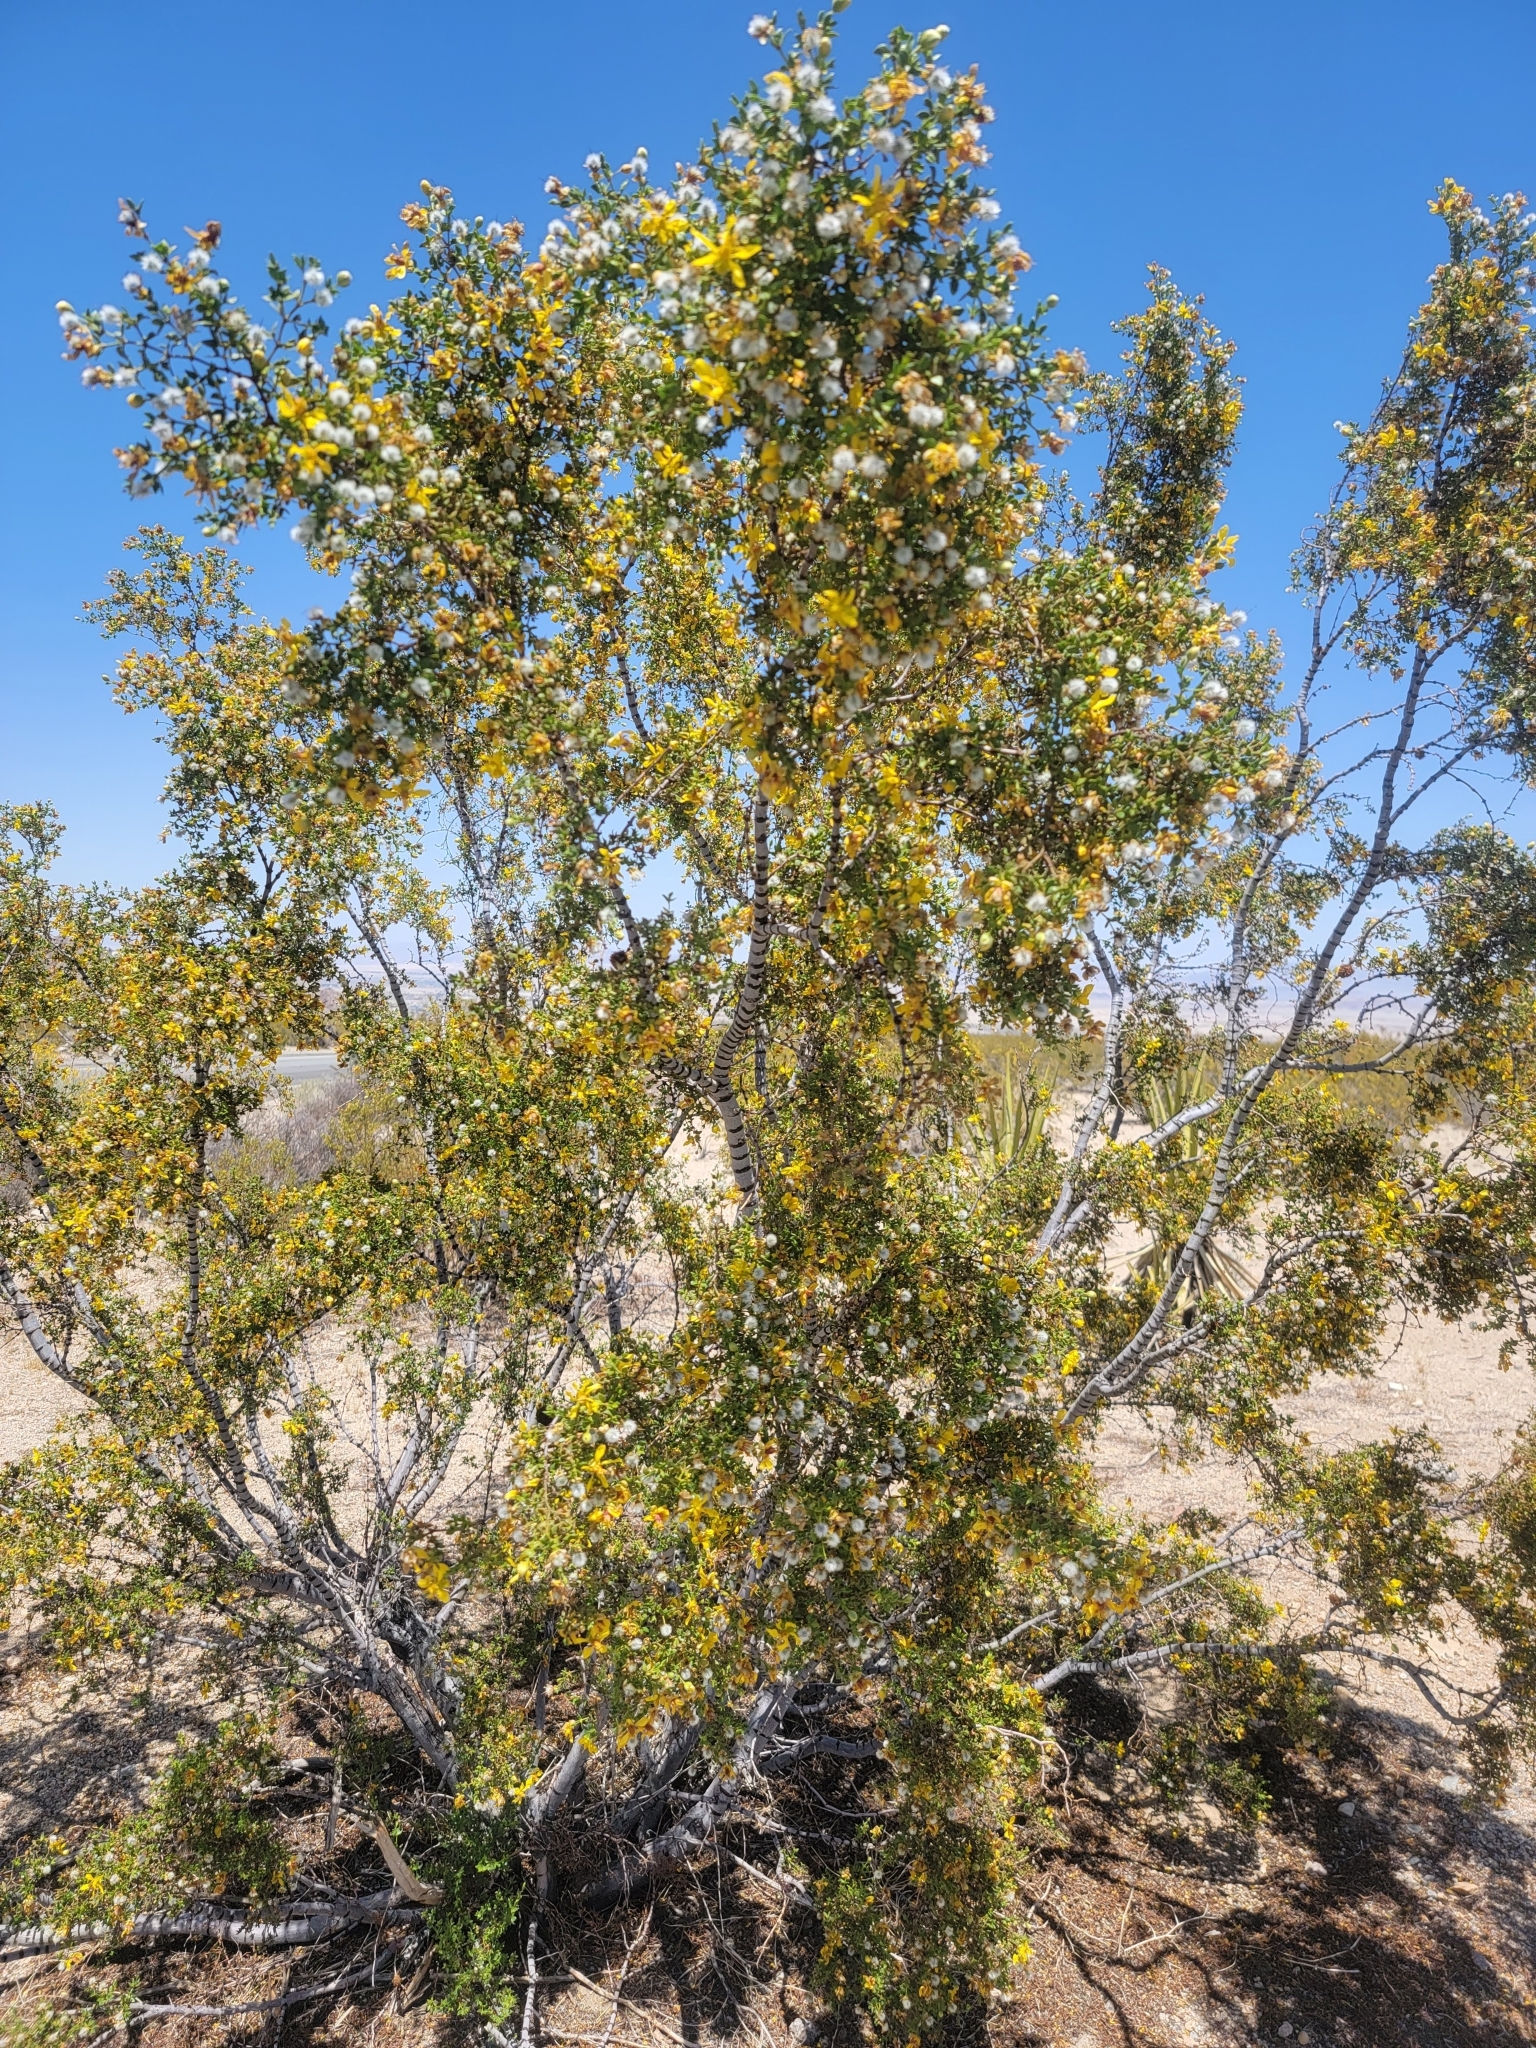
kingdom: Plantae
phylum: Tracheophyta
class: Magnoliopsida
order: Zygophyllales
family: Zygophyllaceae
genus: Larrea
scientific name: Larrea tridentata
